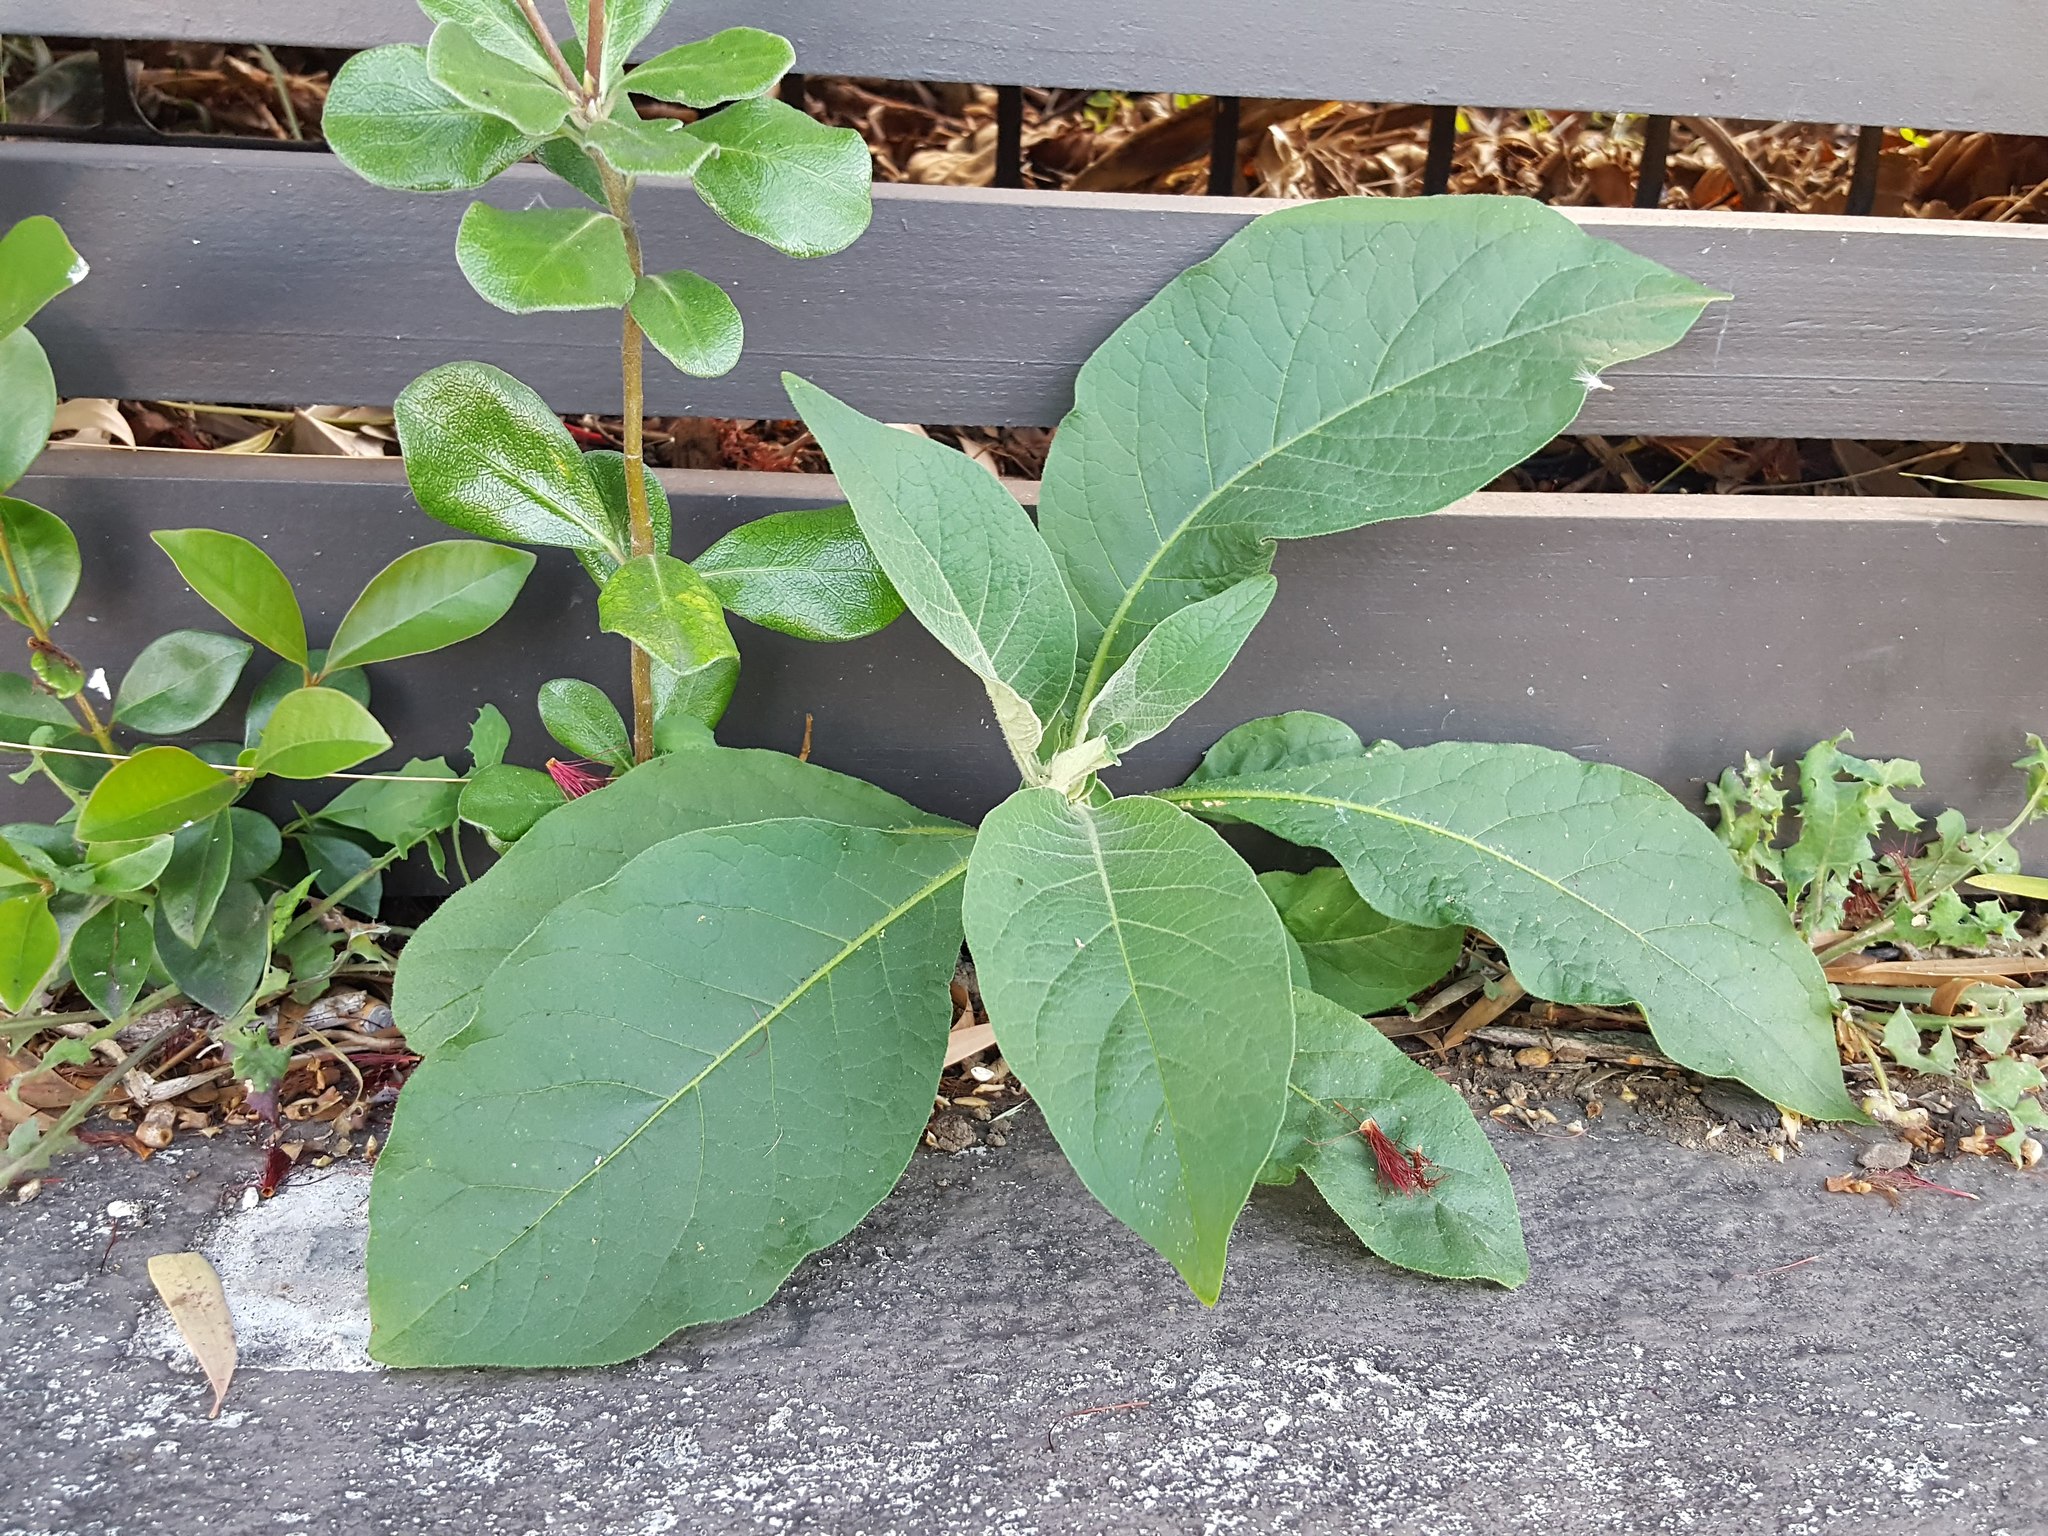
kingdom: Plantae
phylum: Tracheophyta
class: Magnoliopsida
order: Solanales
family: Solanaceae
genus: Solanum
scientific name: Solanum mauritianum
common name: Earleaf nightshade
